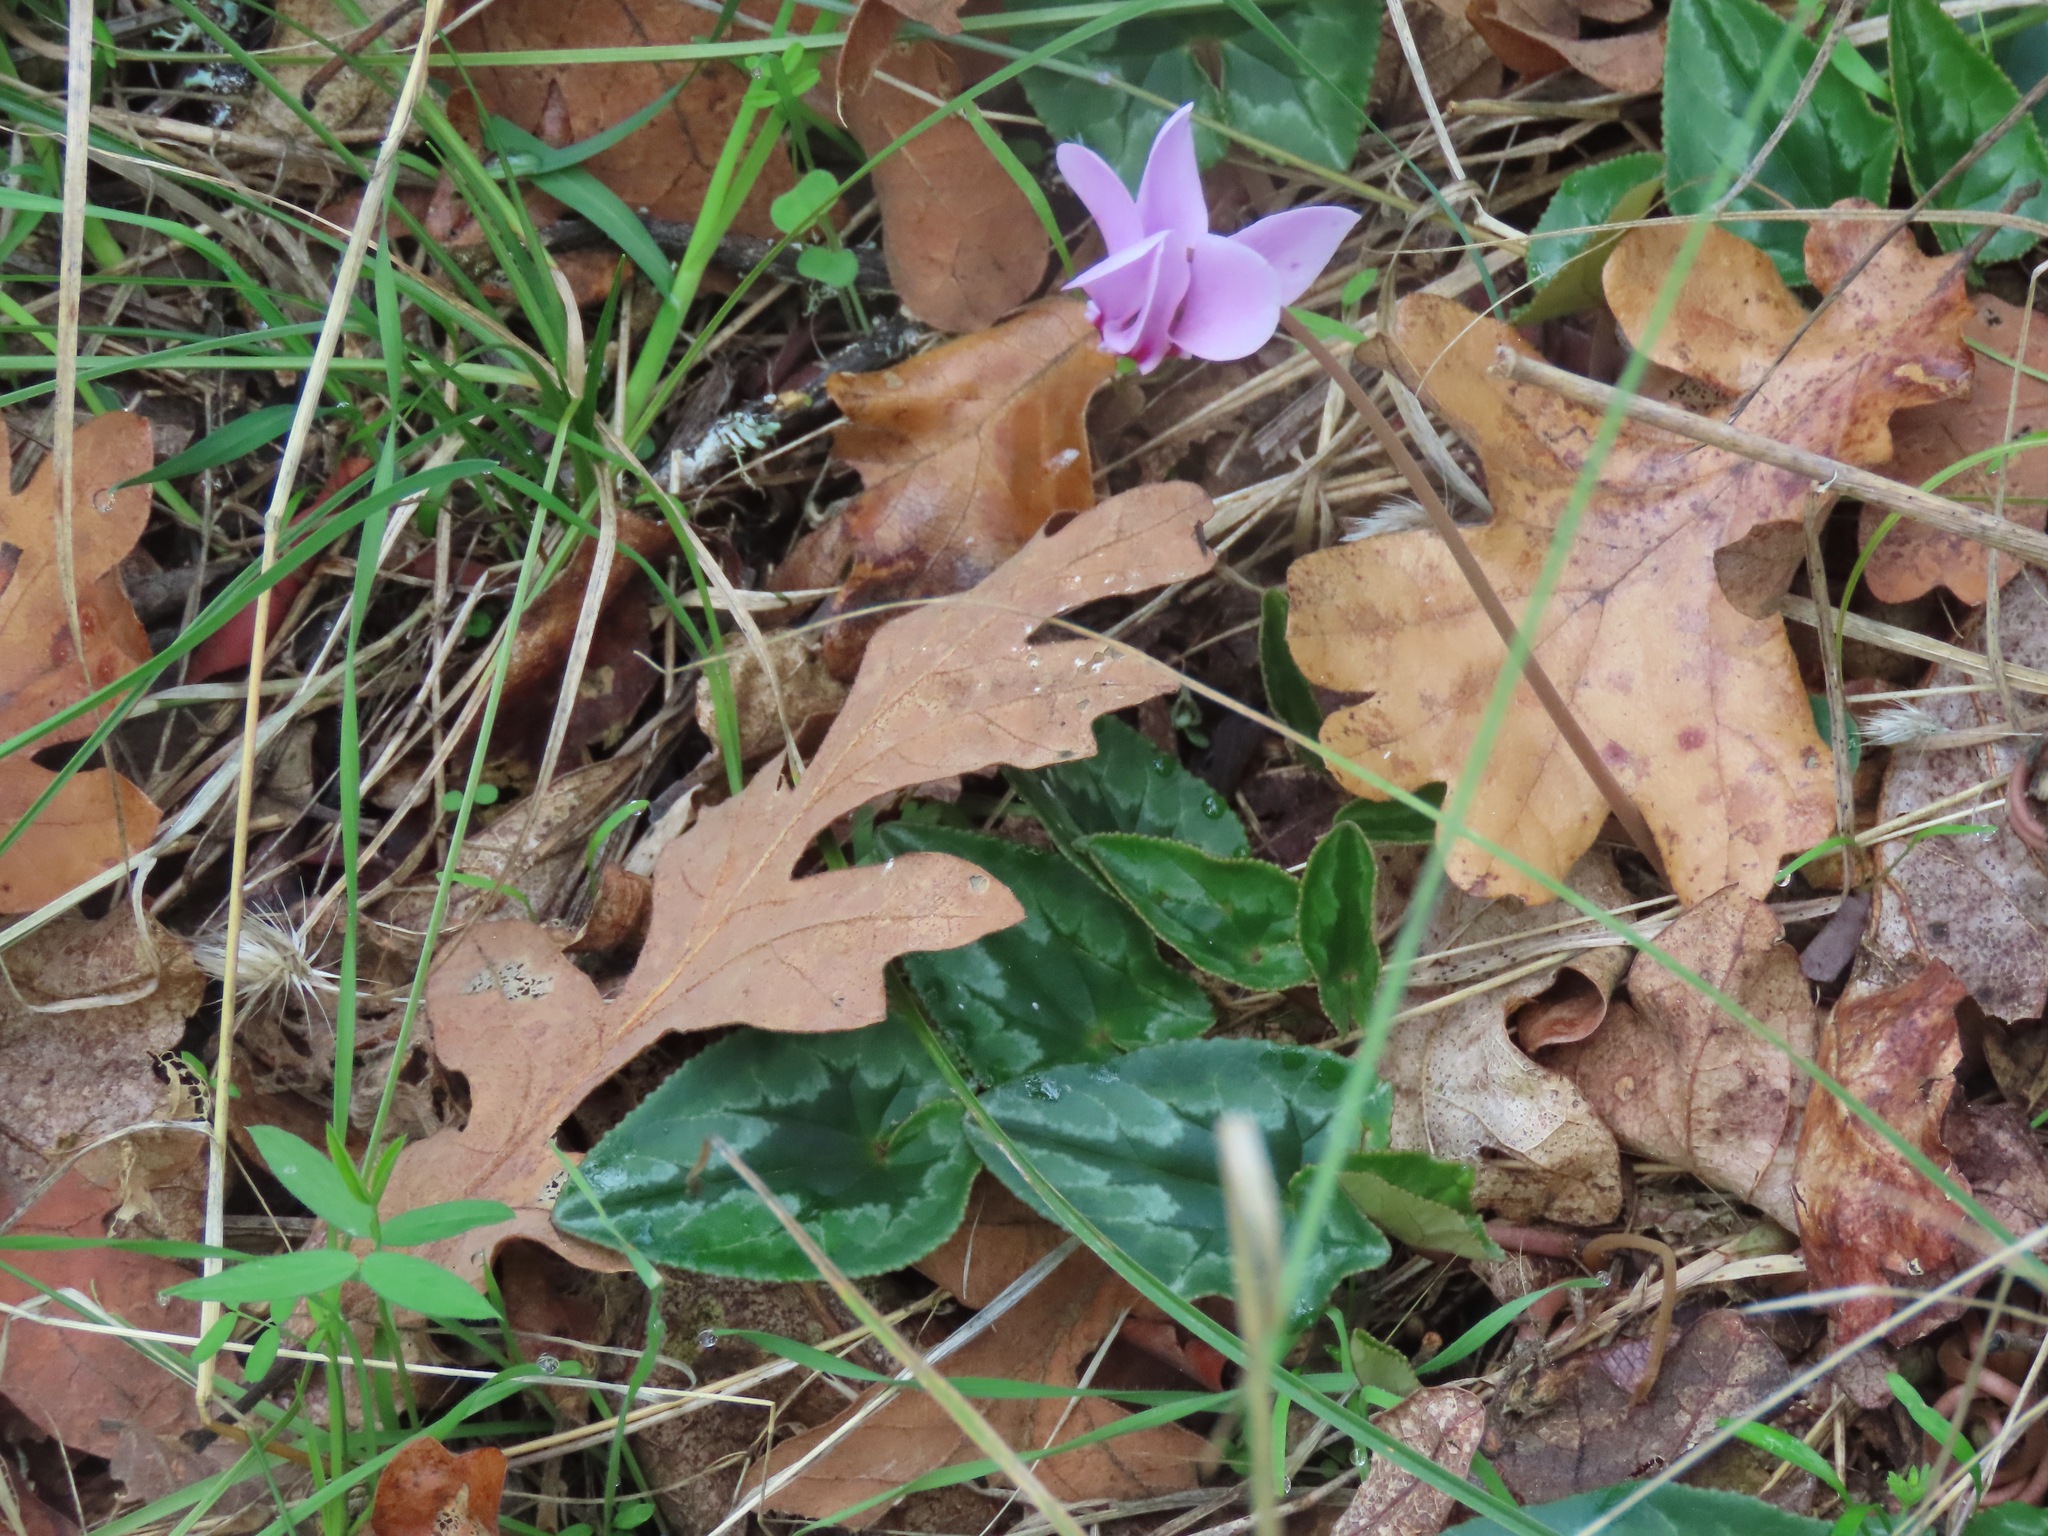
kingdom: Plantae
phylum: Tracheophyta
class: Magnoliopsida
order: Ericales
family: Primulaceae
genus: Cyclamen
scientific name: Cyclamen hederifolium
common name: Sowbread
